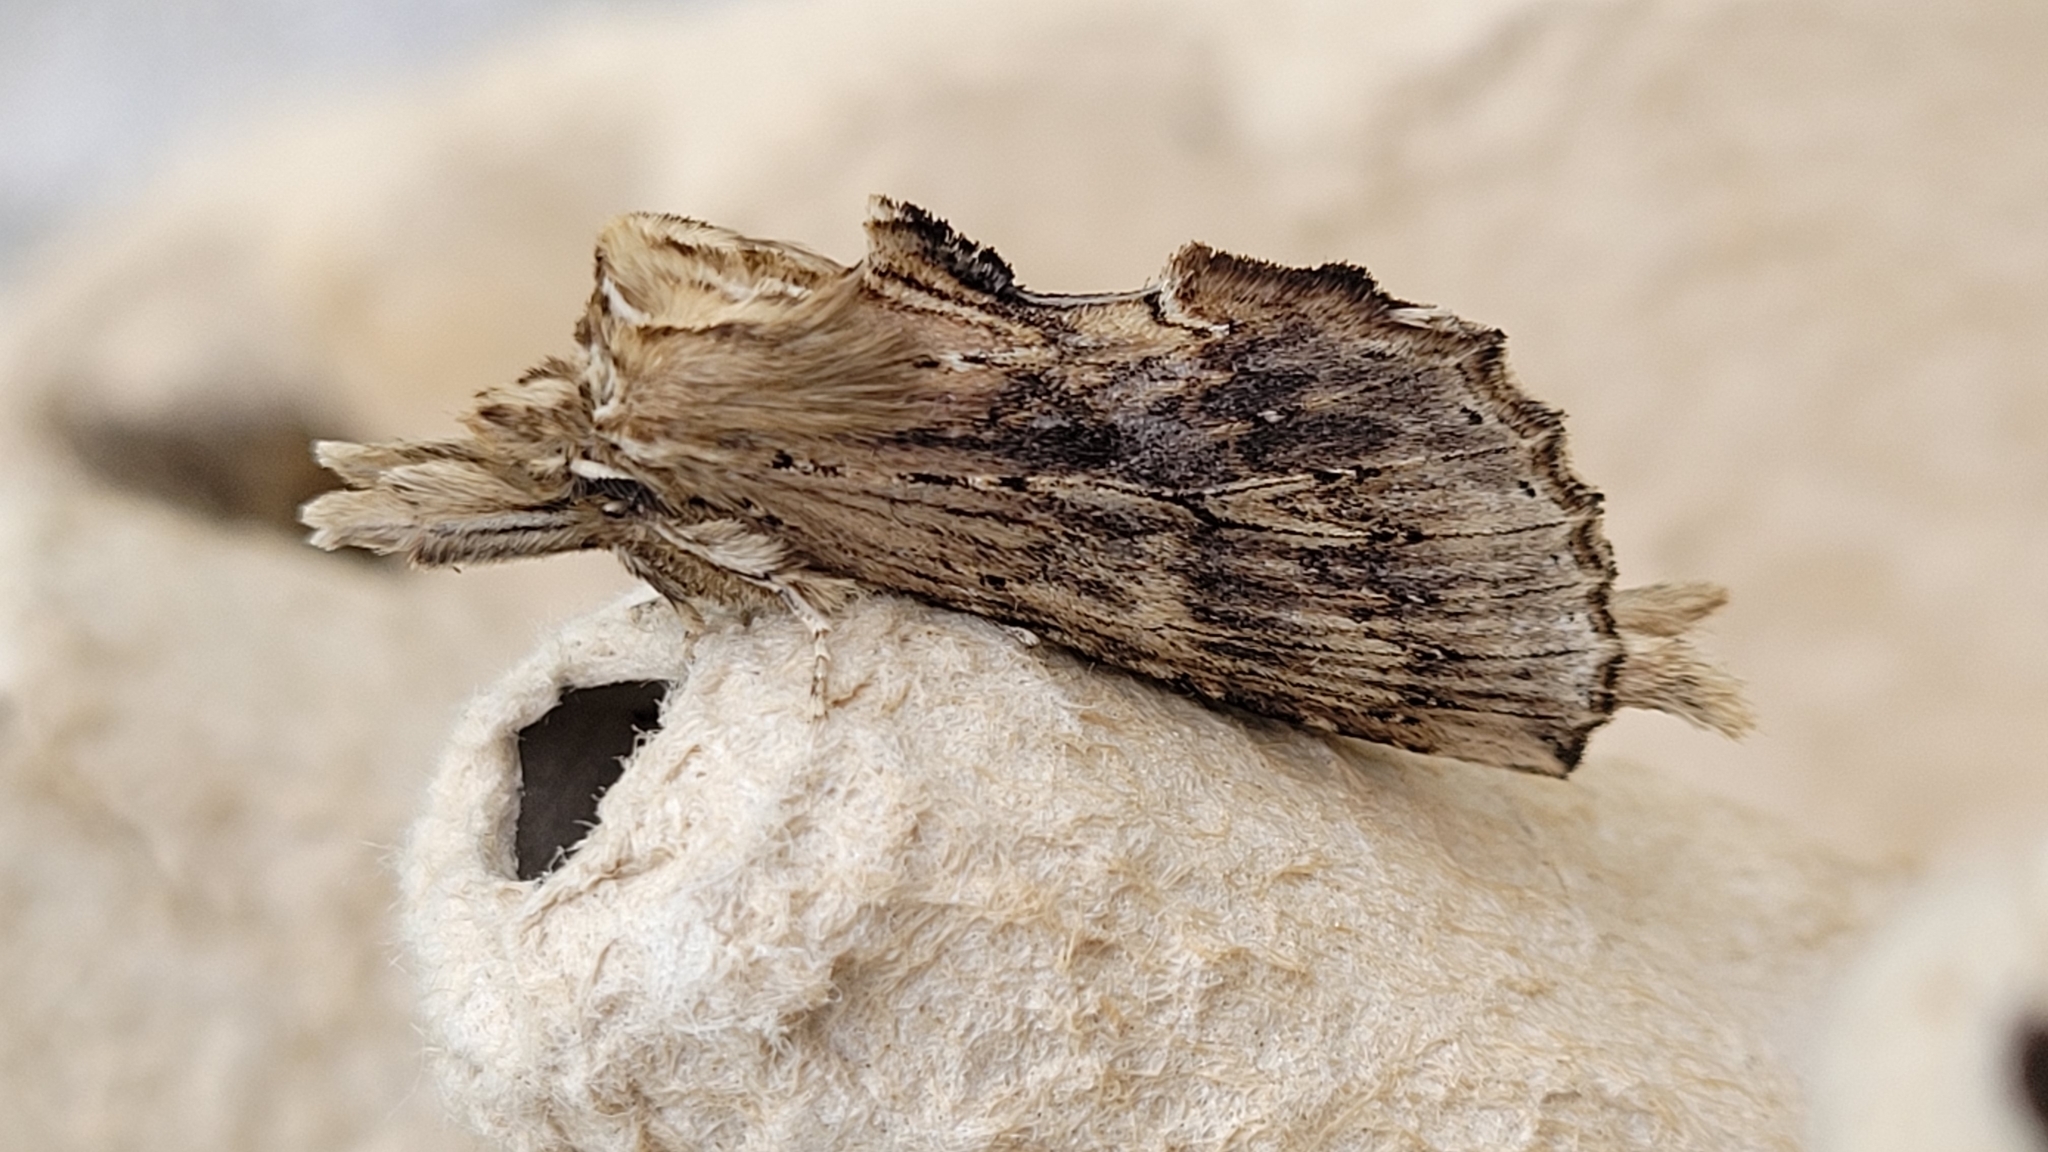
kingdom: Animalia
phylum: Arthropoda
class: Insecta
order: Lepidoptera
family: Notodontidae
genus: Pterostoma
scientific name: Pterostoma palpina
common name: Pale prominent
